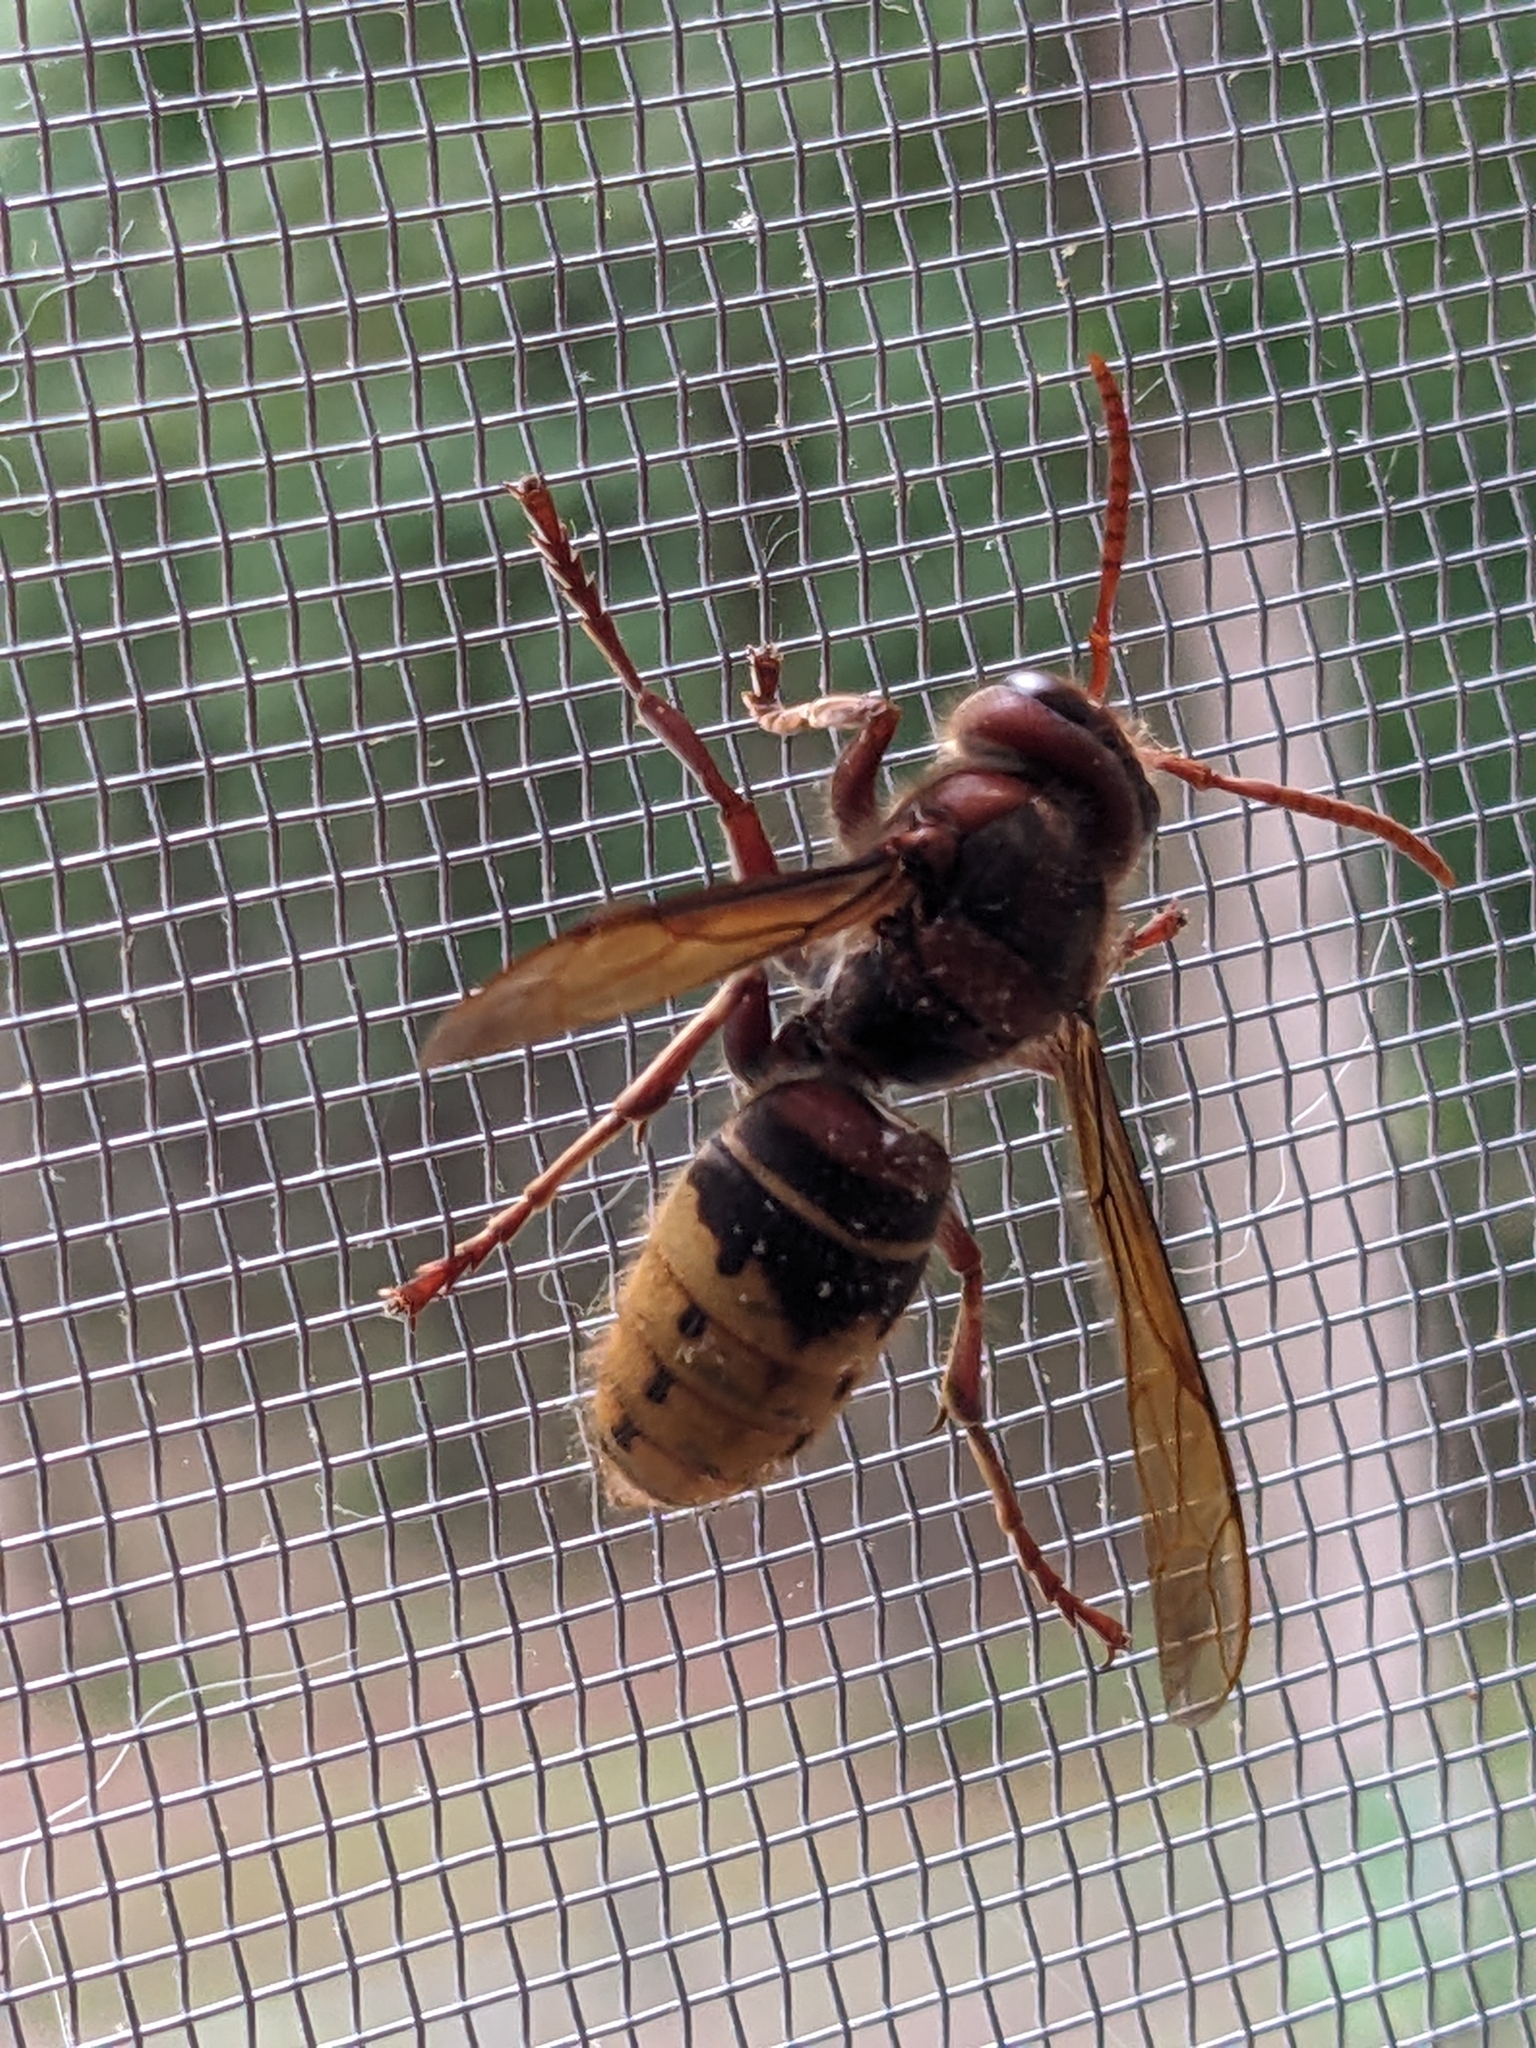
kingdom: Animalia
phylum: Arthropoda
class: Insecta
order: Hymenoptera
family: Vespidae
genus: Vespa
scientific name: Vespa crabro
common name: Hornet
